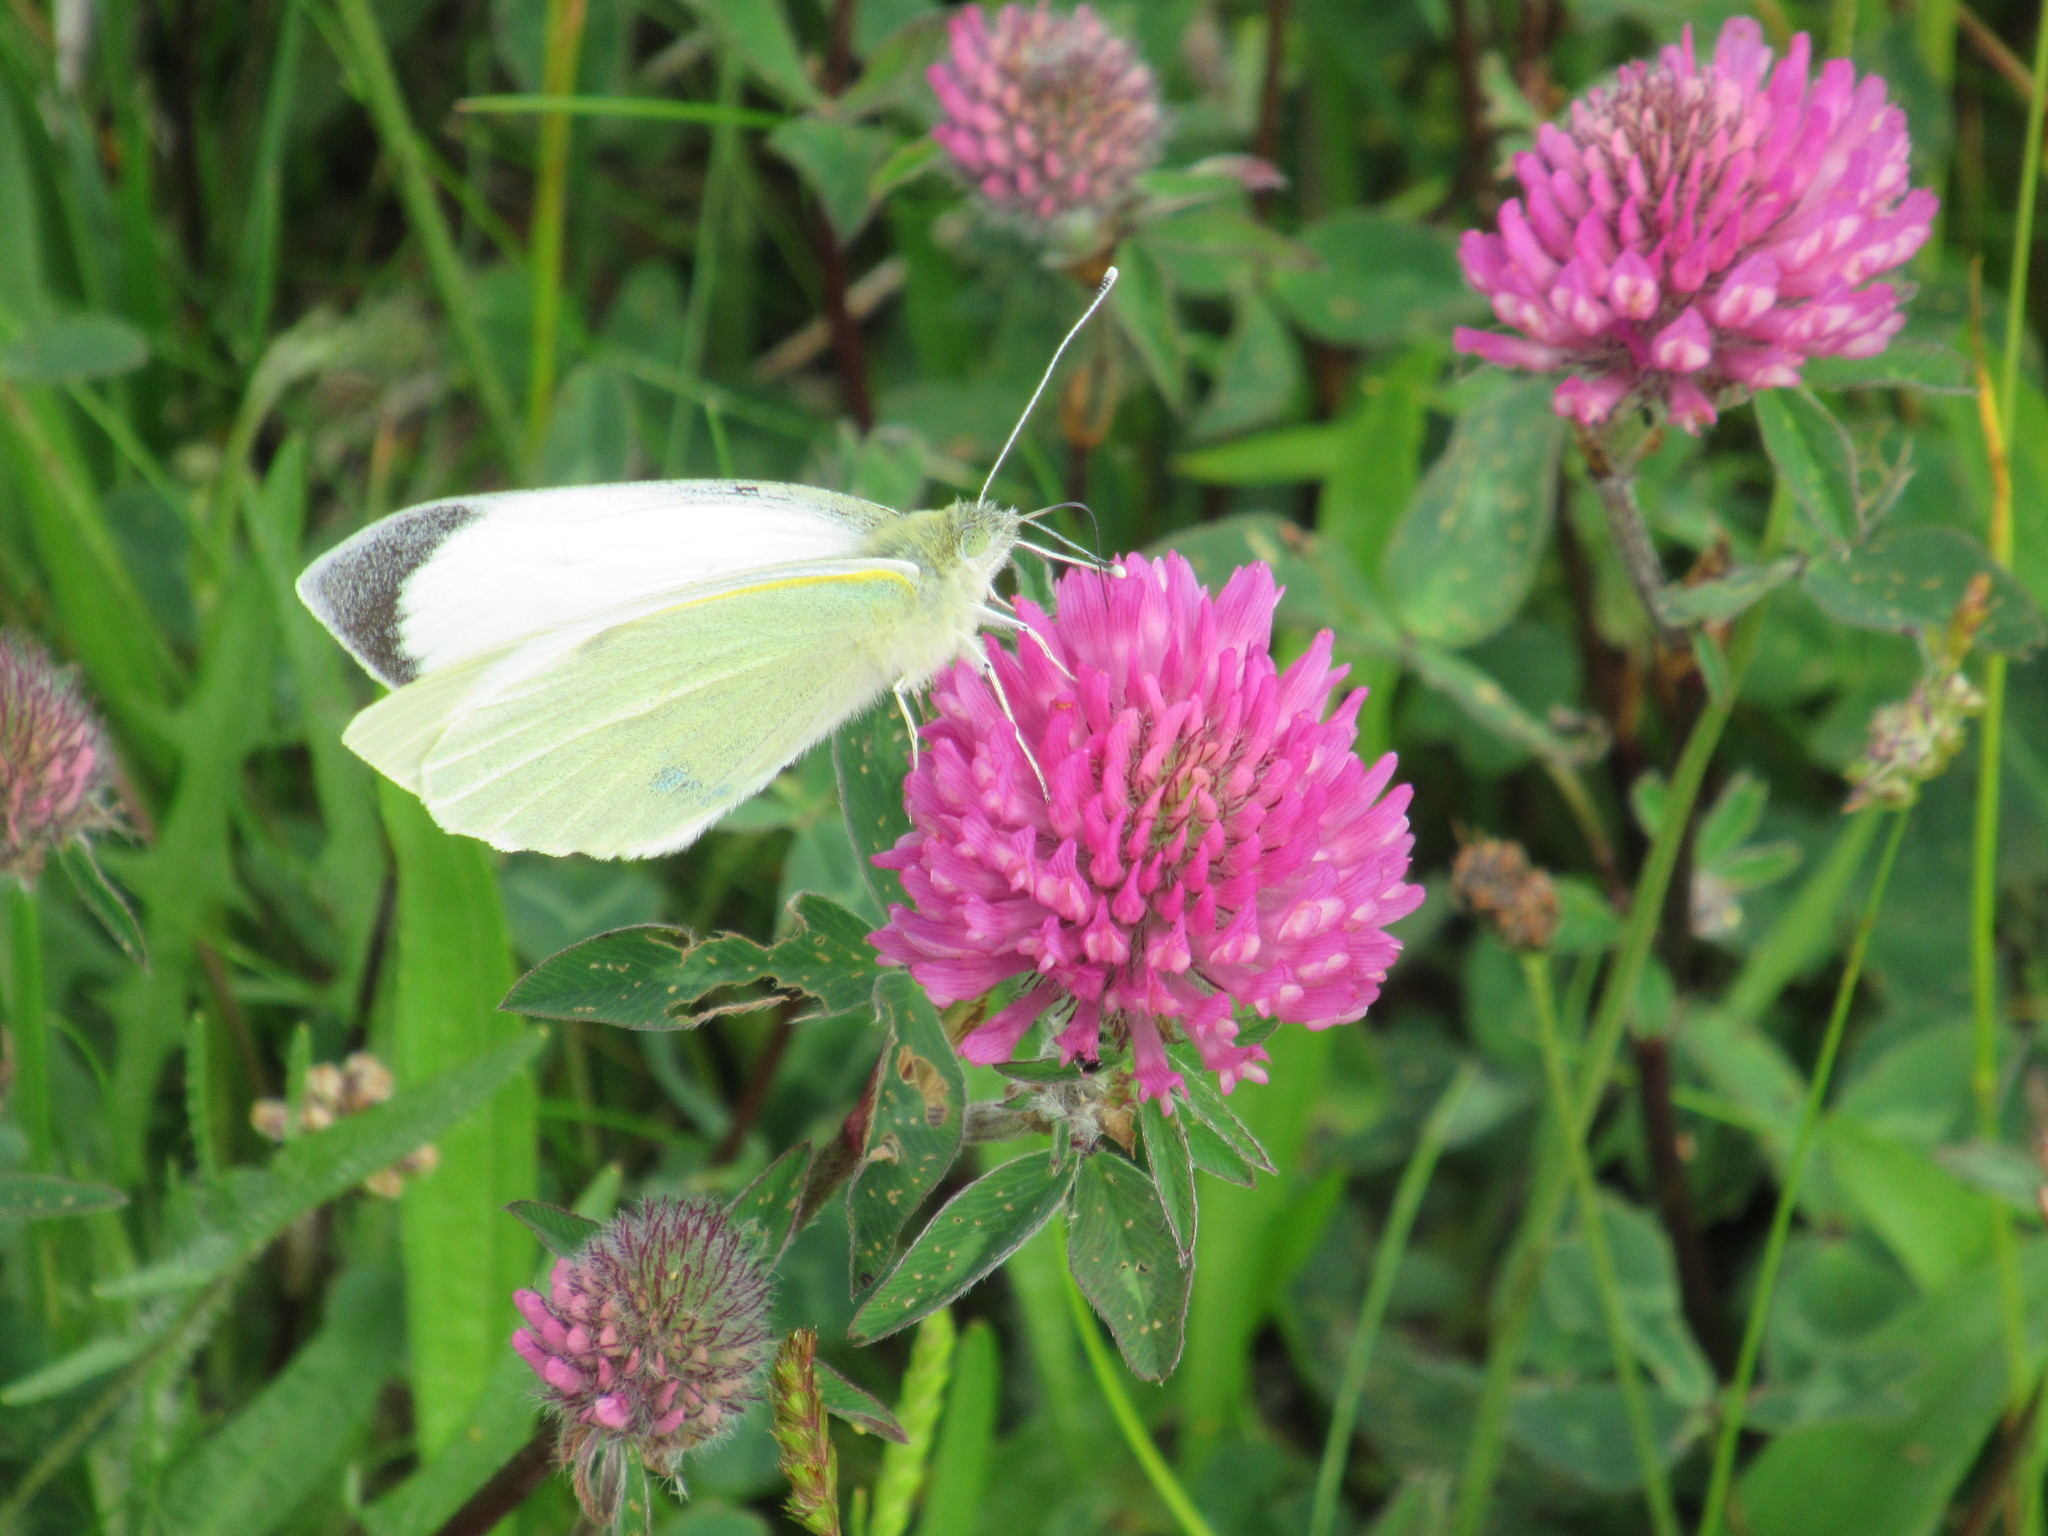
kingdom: Animalia
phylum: Arthropoda
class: Insecta
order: Lepidoptera
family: Pieridae
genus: Pieris
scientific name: Pieris brassicae
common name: Large white
